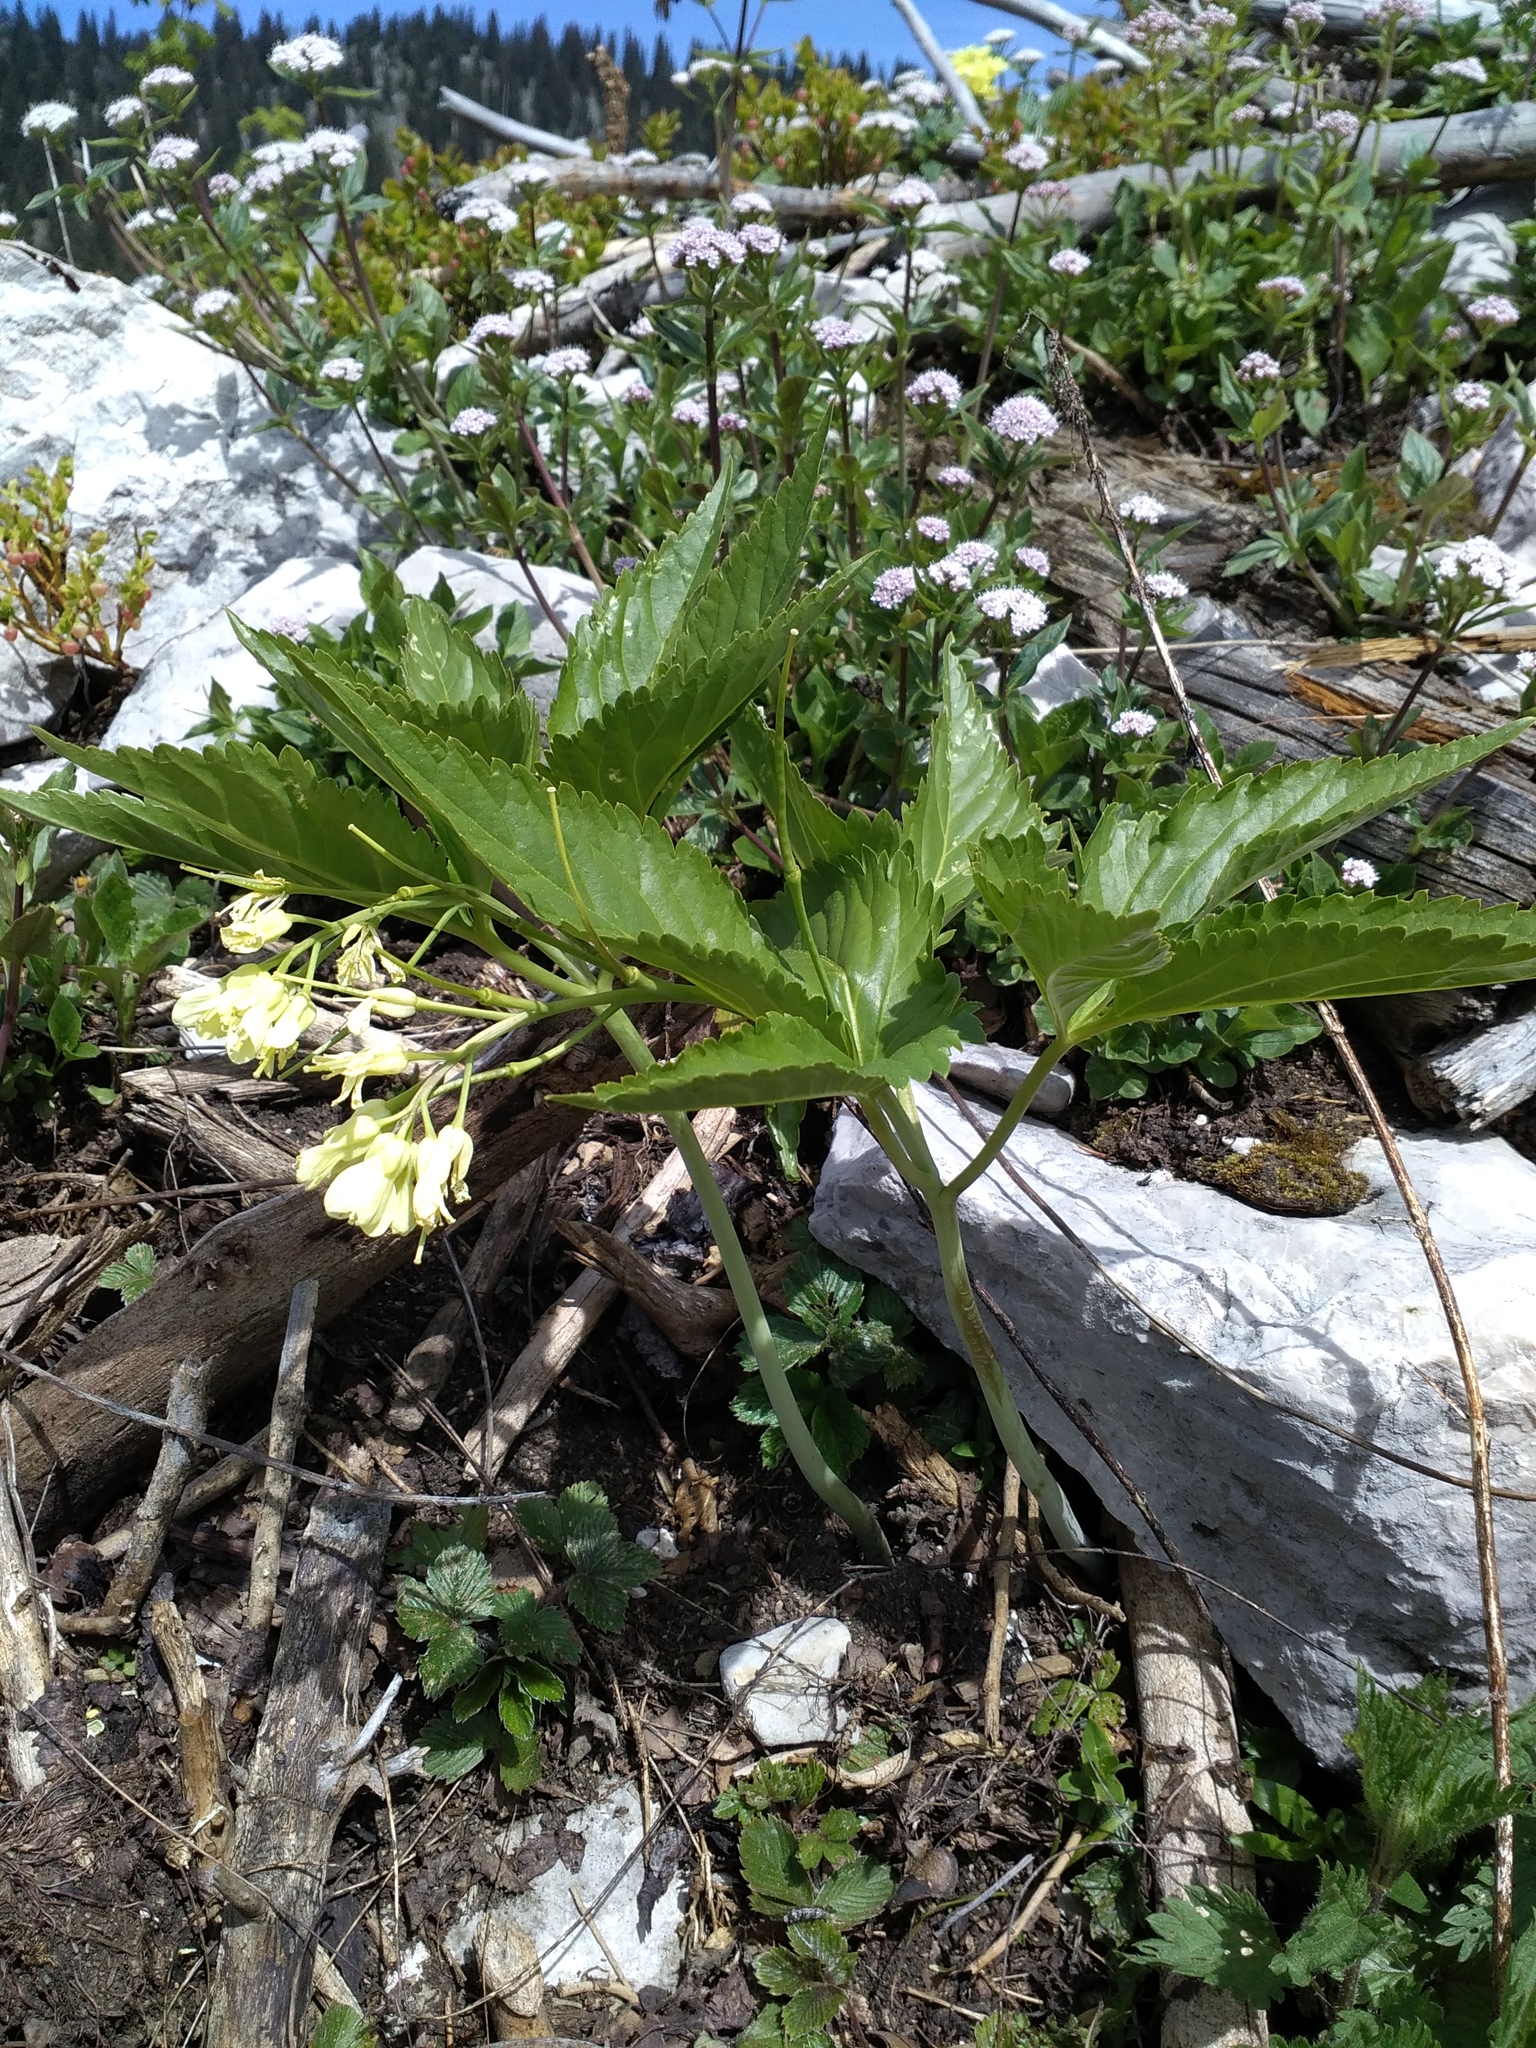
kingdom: Plantae
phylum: Tracheophyta
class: Magnoliopsida
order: Brassicales
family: Brassicaceae
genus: Cardamine
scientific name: Cardamine enneaphyllos
